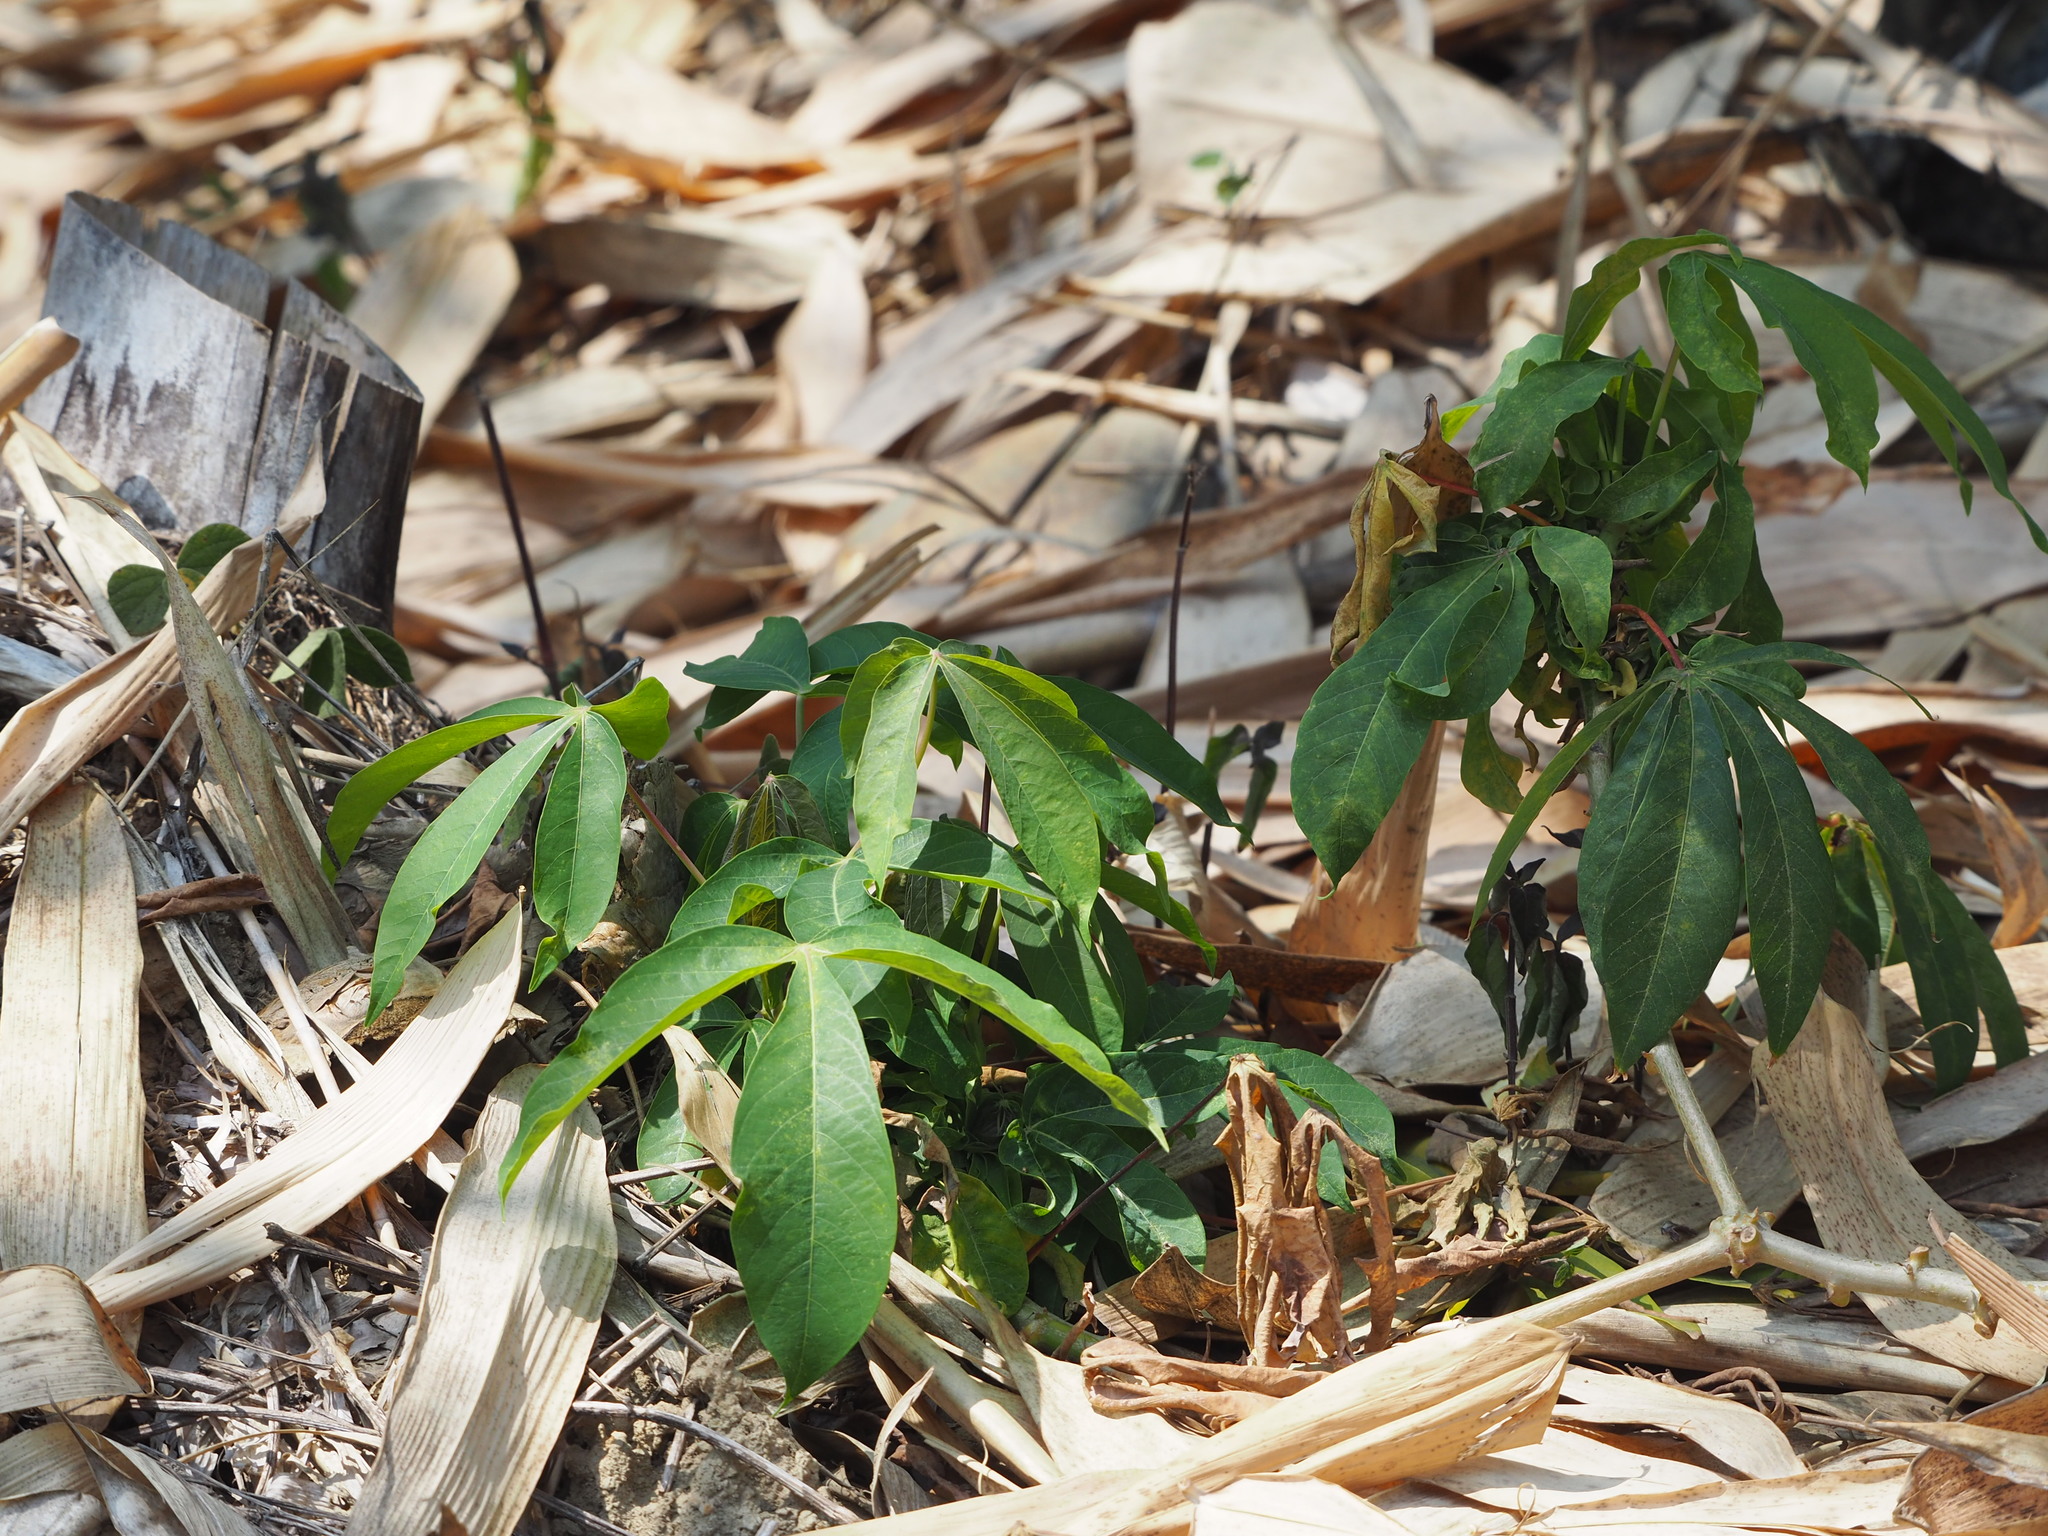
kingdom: Plantae
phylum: Tracheophyta
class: Magnoliopsida
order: Malpighiales
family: Euphorbiaceae
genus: Manihot
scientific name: Manihot esculenta
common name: Cassava
